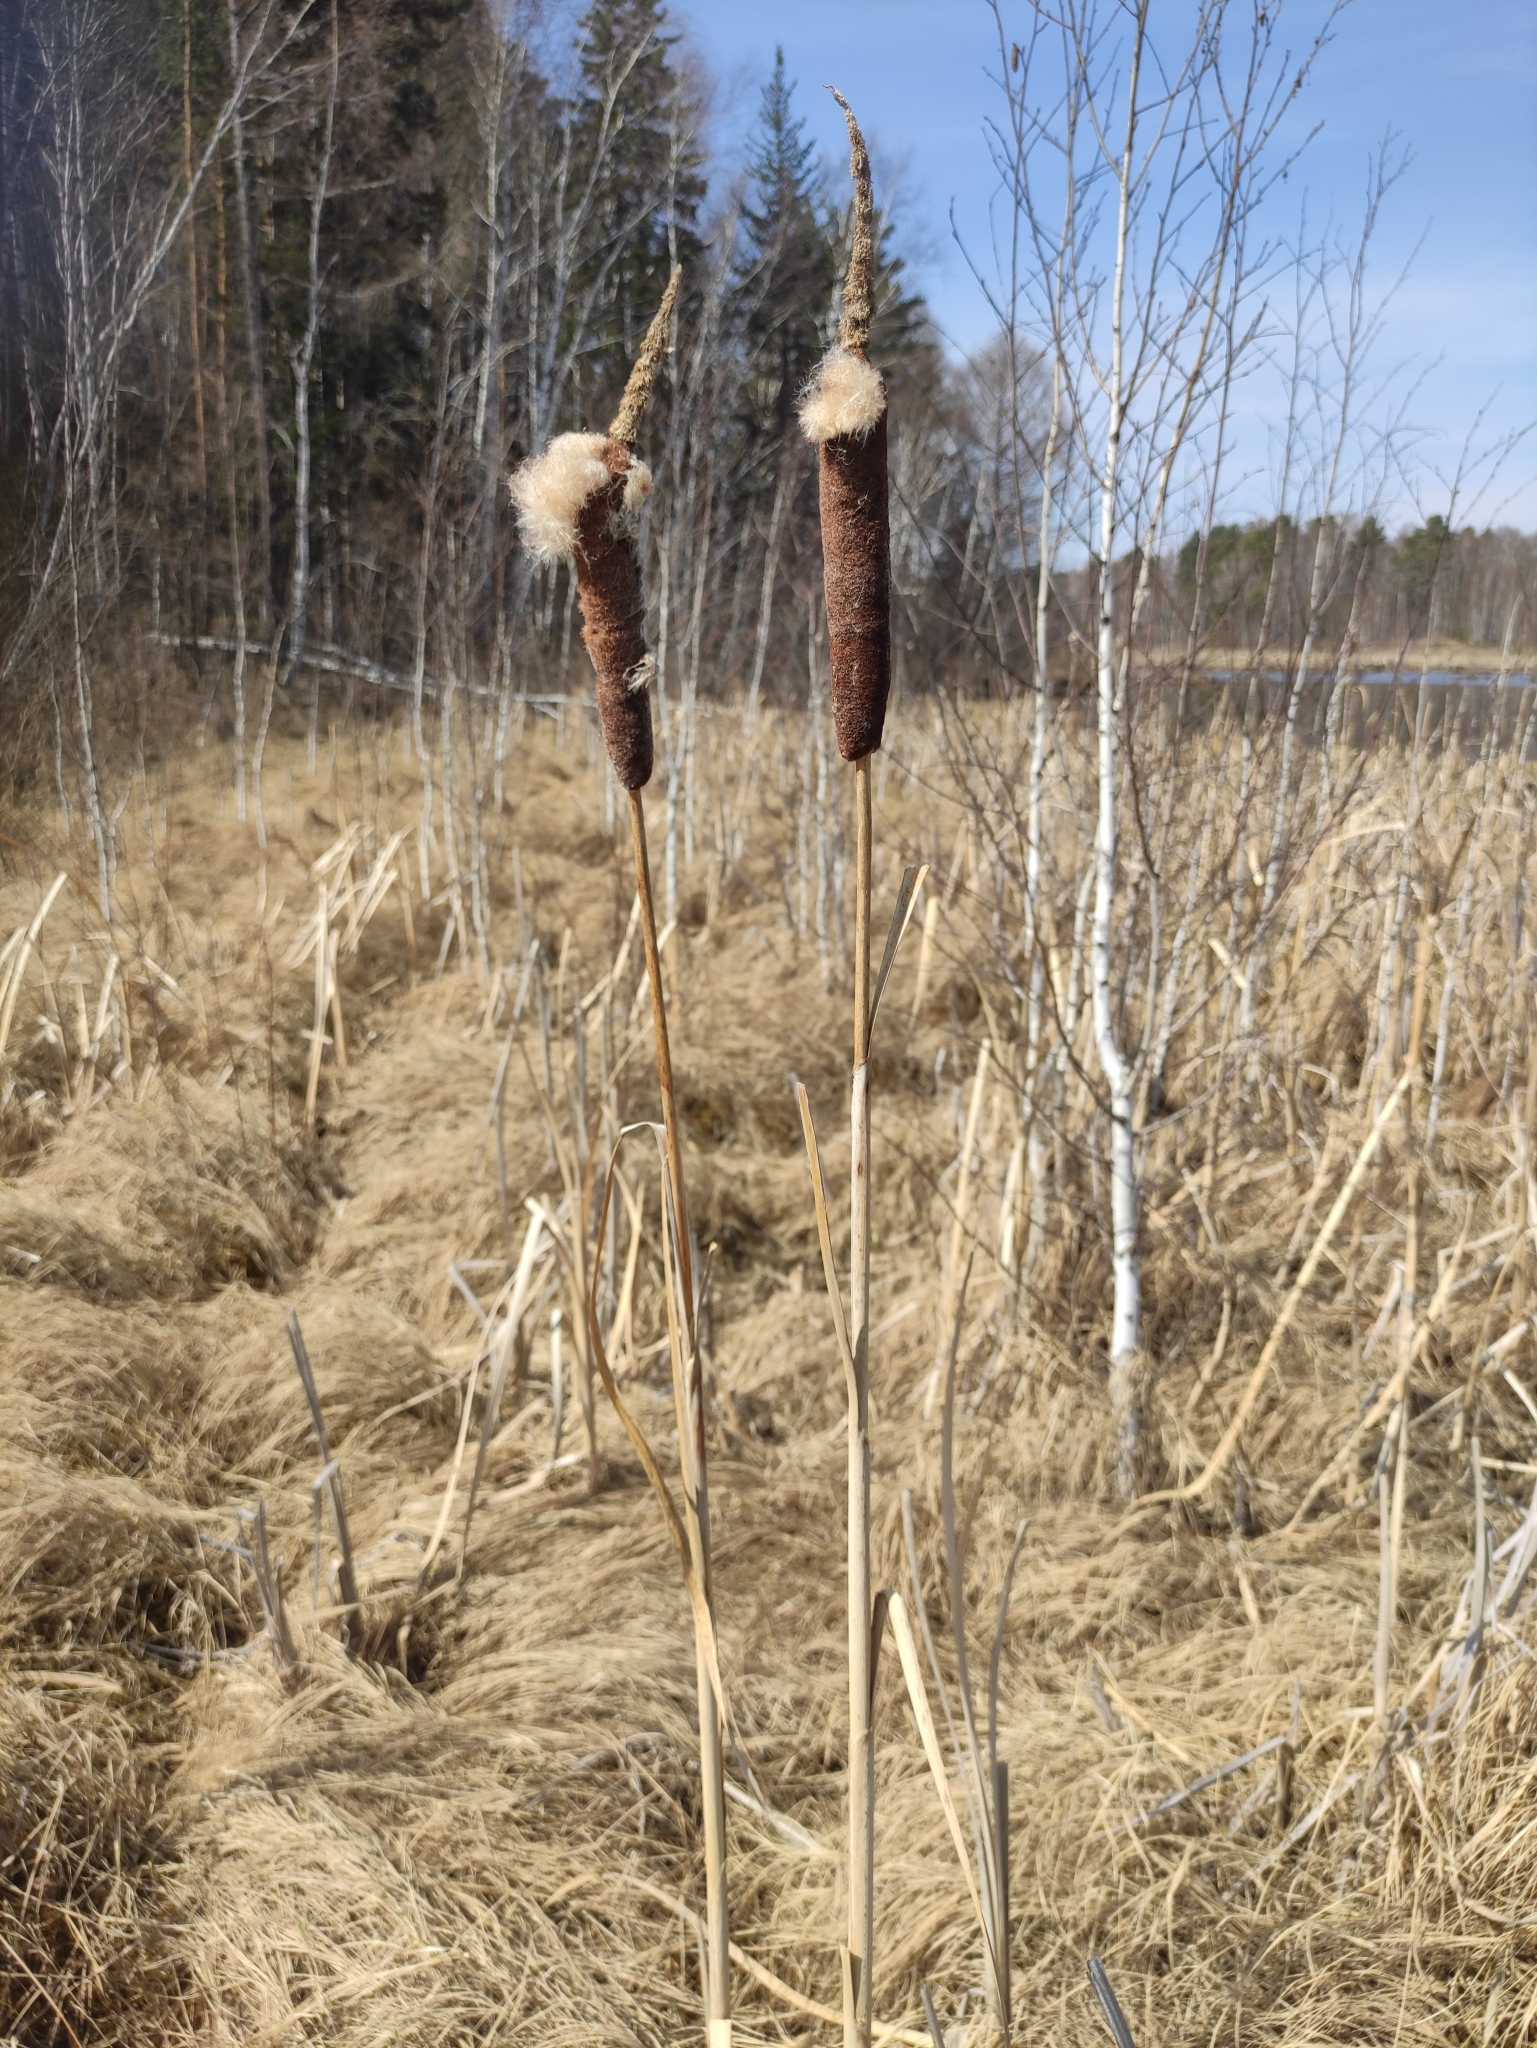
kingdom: Plantae
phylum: Tracheophyta
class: Liliopsida
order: Poales
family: Typhaceae
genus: Typha
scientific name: Typha latifolia
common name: Broadleaf cattail
